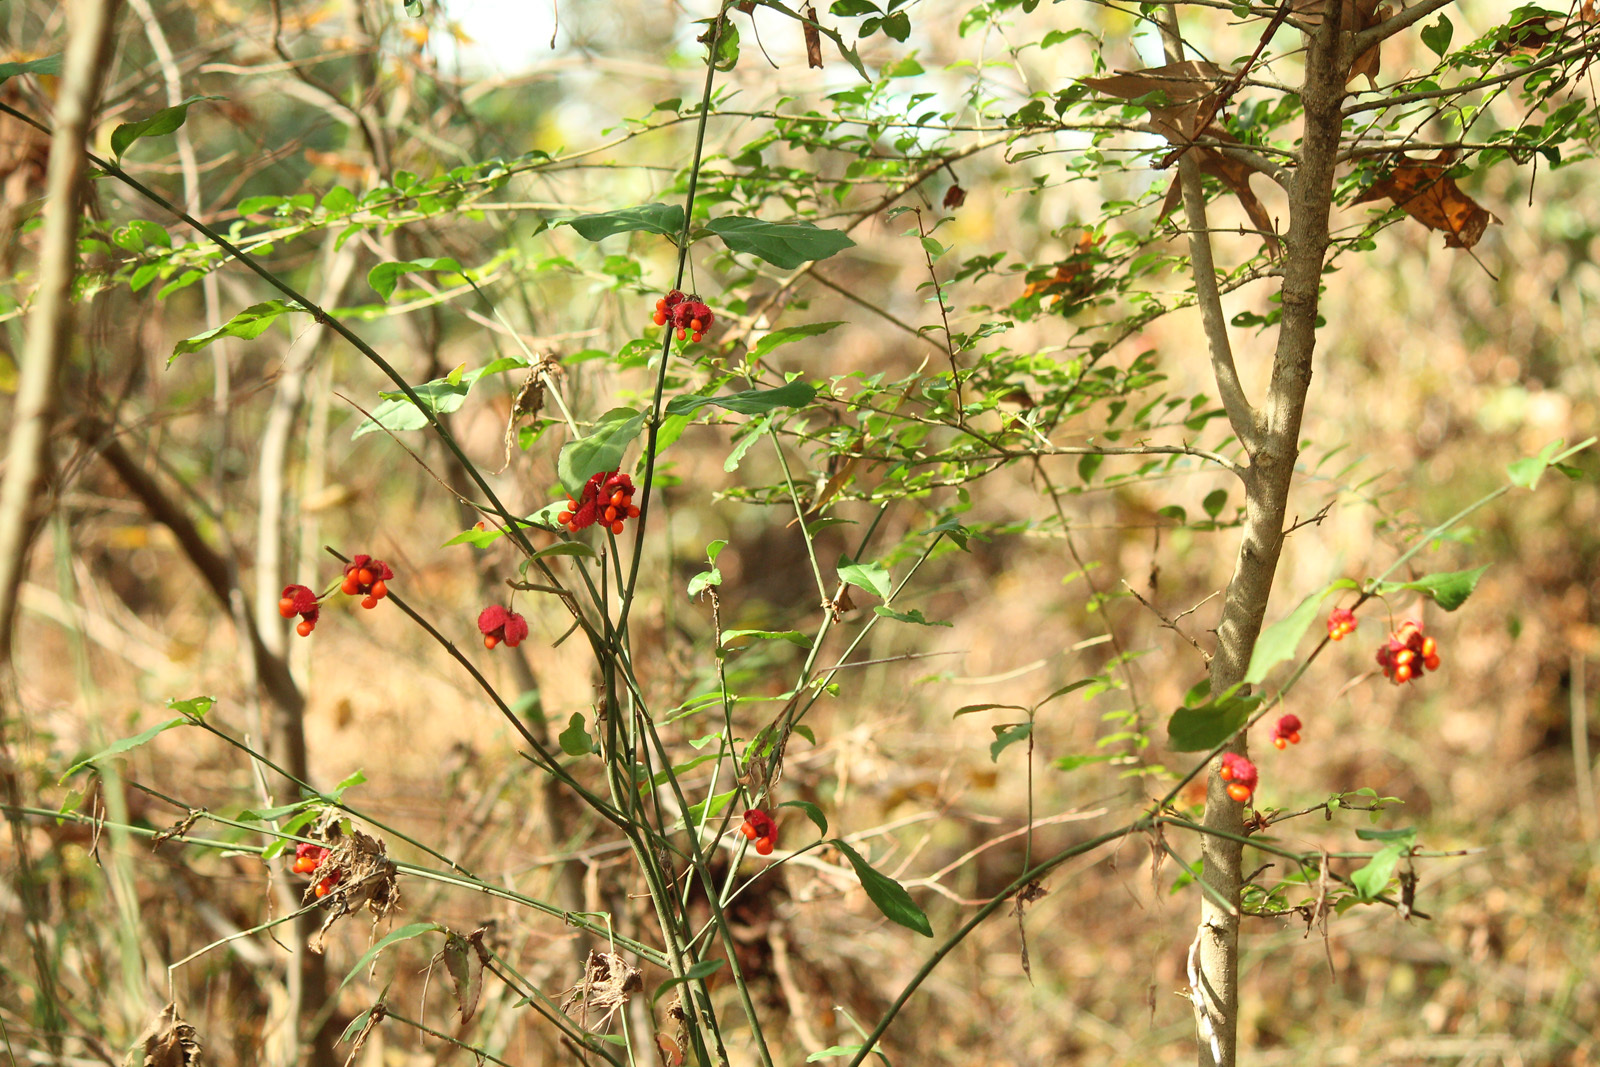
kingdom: Plantae
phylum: Tracheophyta
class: Magnoliopsida
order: Celastrales
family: Celastraceae
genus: Euonymus
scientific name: Euonymus americanus
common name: Bursting-heart
